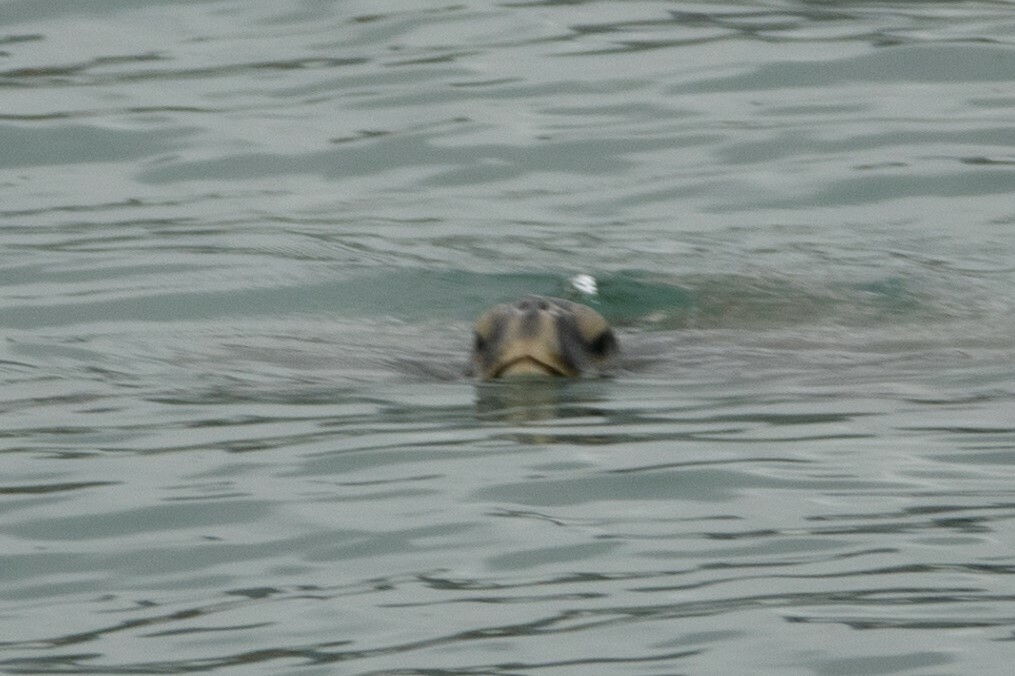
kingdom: Animalia
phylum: Chordata
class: Testudines
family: Cheloniidae
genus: Chelonia
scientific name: Chelonia mydas
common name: Green turtle
